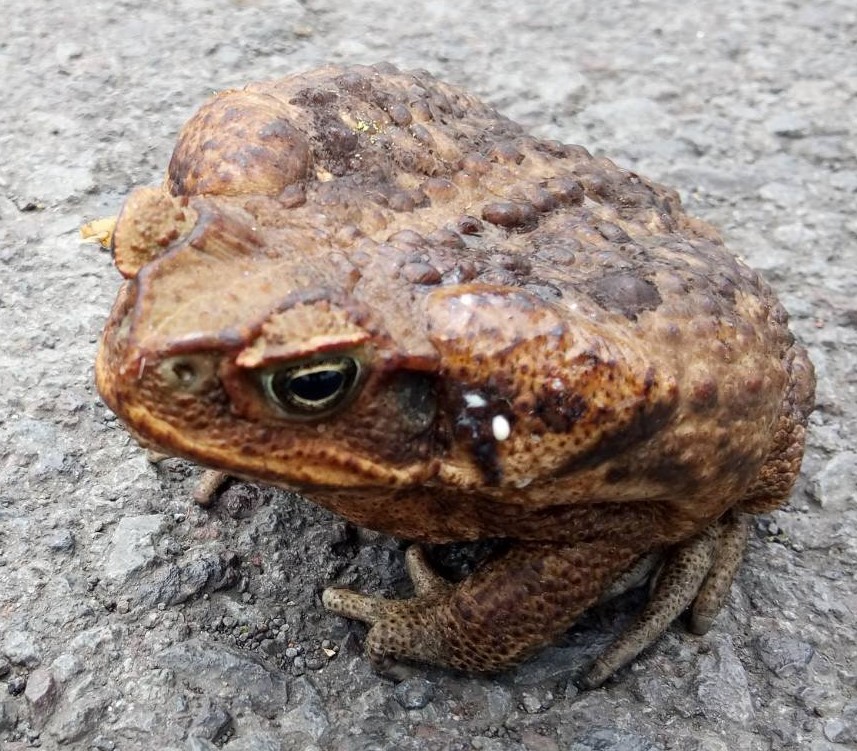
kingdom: Animalia
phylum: Chordata
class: Amphibia
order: Anura
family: Bufonidae
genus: Rhinella
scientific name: Rhinella marina
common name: Cane toad
